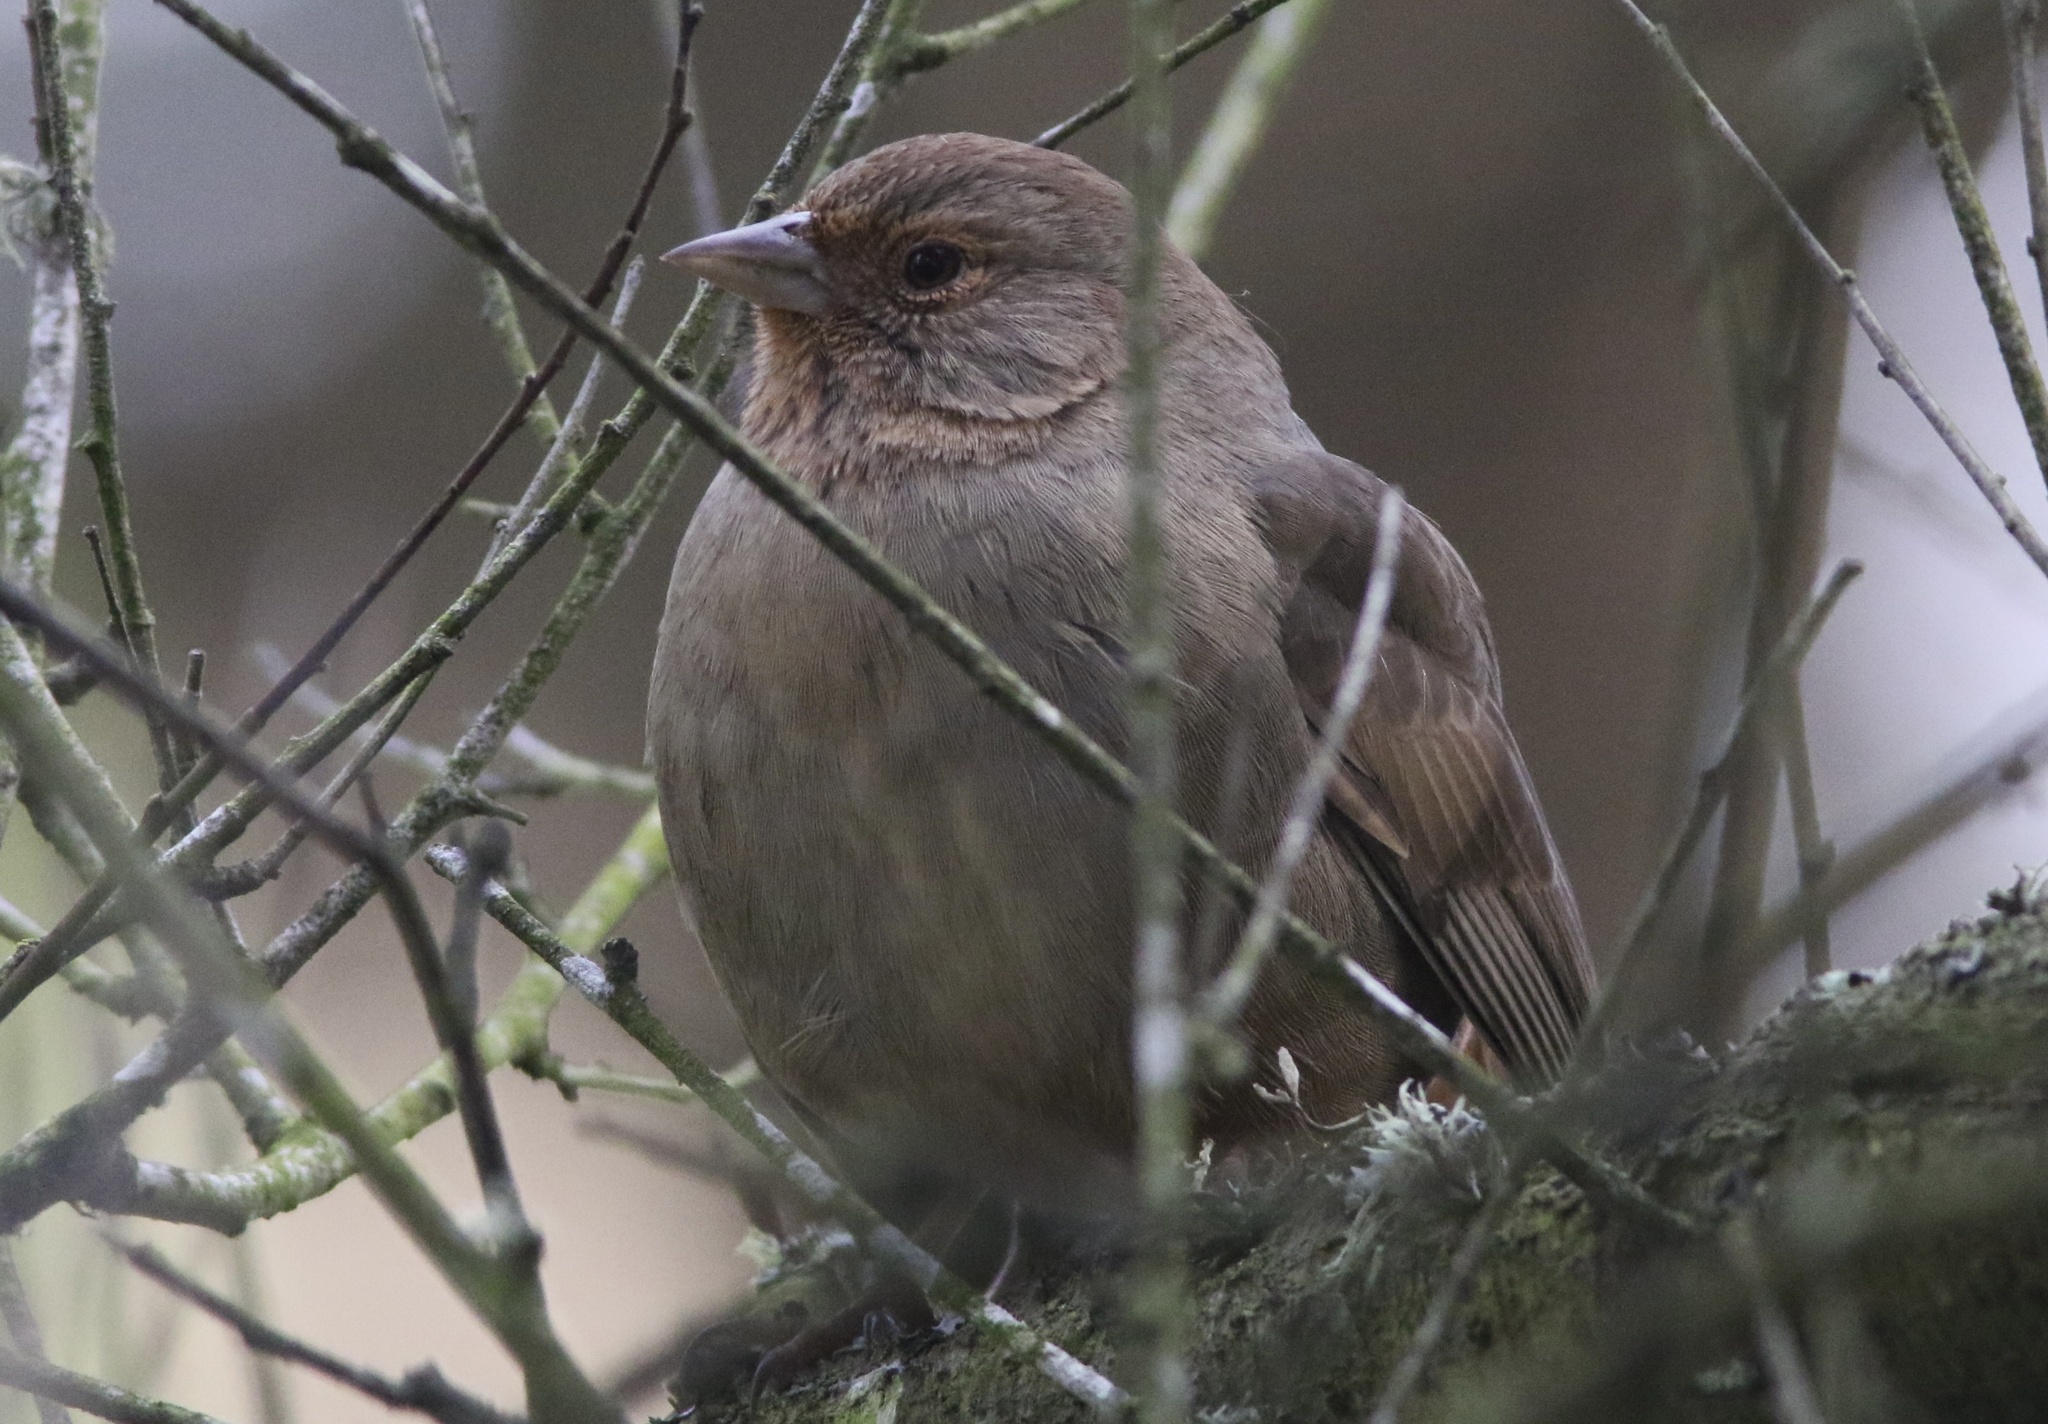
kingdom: Animalia
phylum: Chordata
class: Aves
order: Passeriformes
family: Passerellidae
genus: Melozone
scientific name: Melozone crissalis
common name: California towhee
